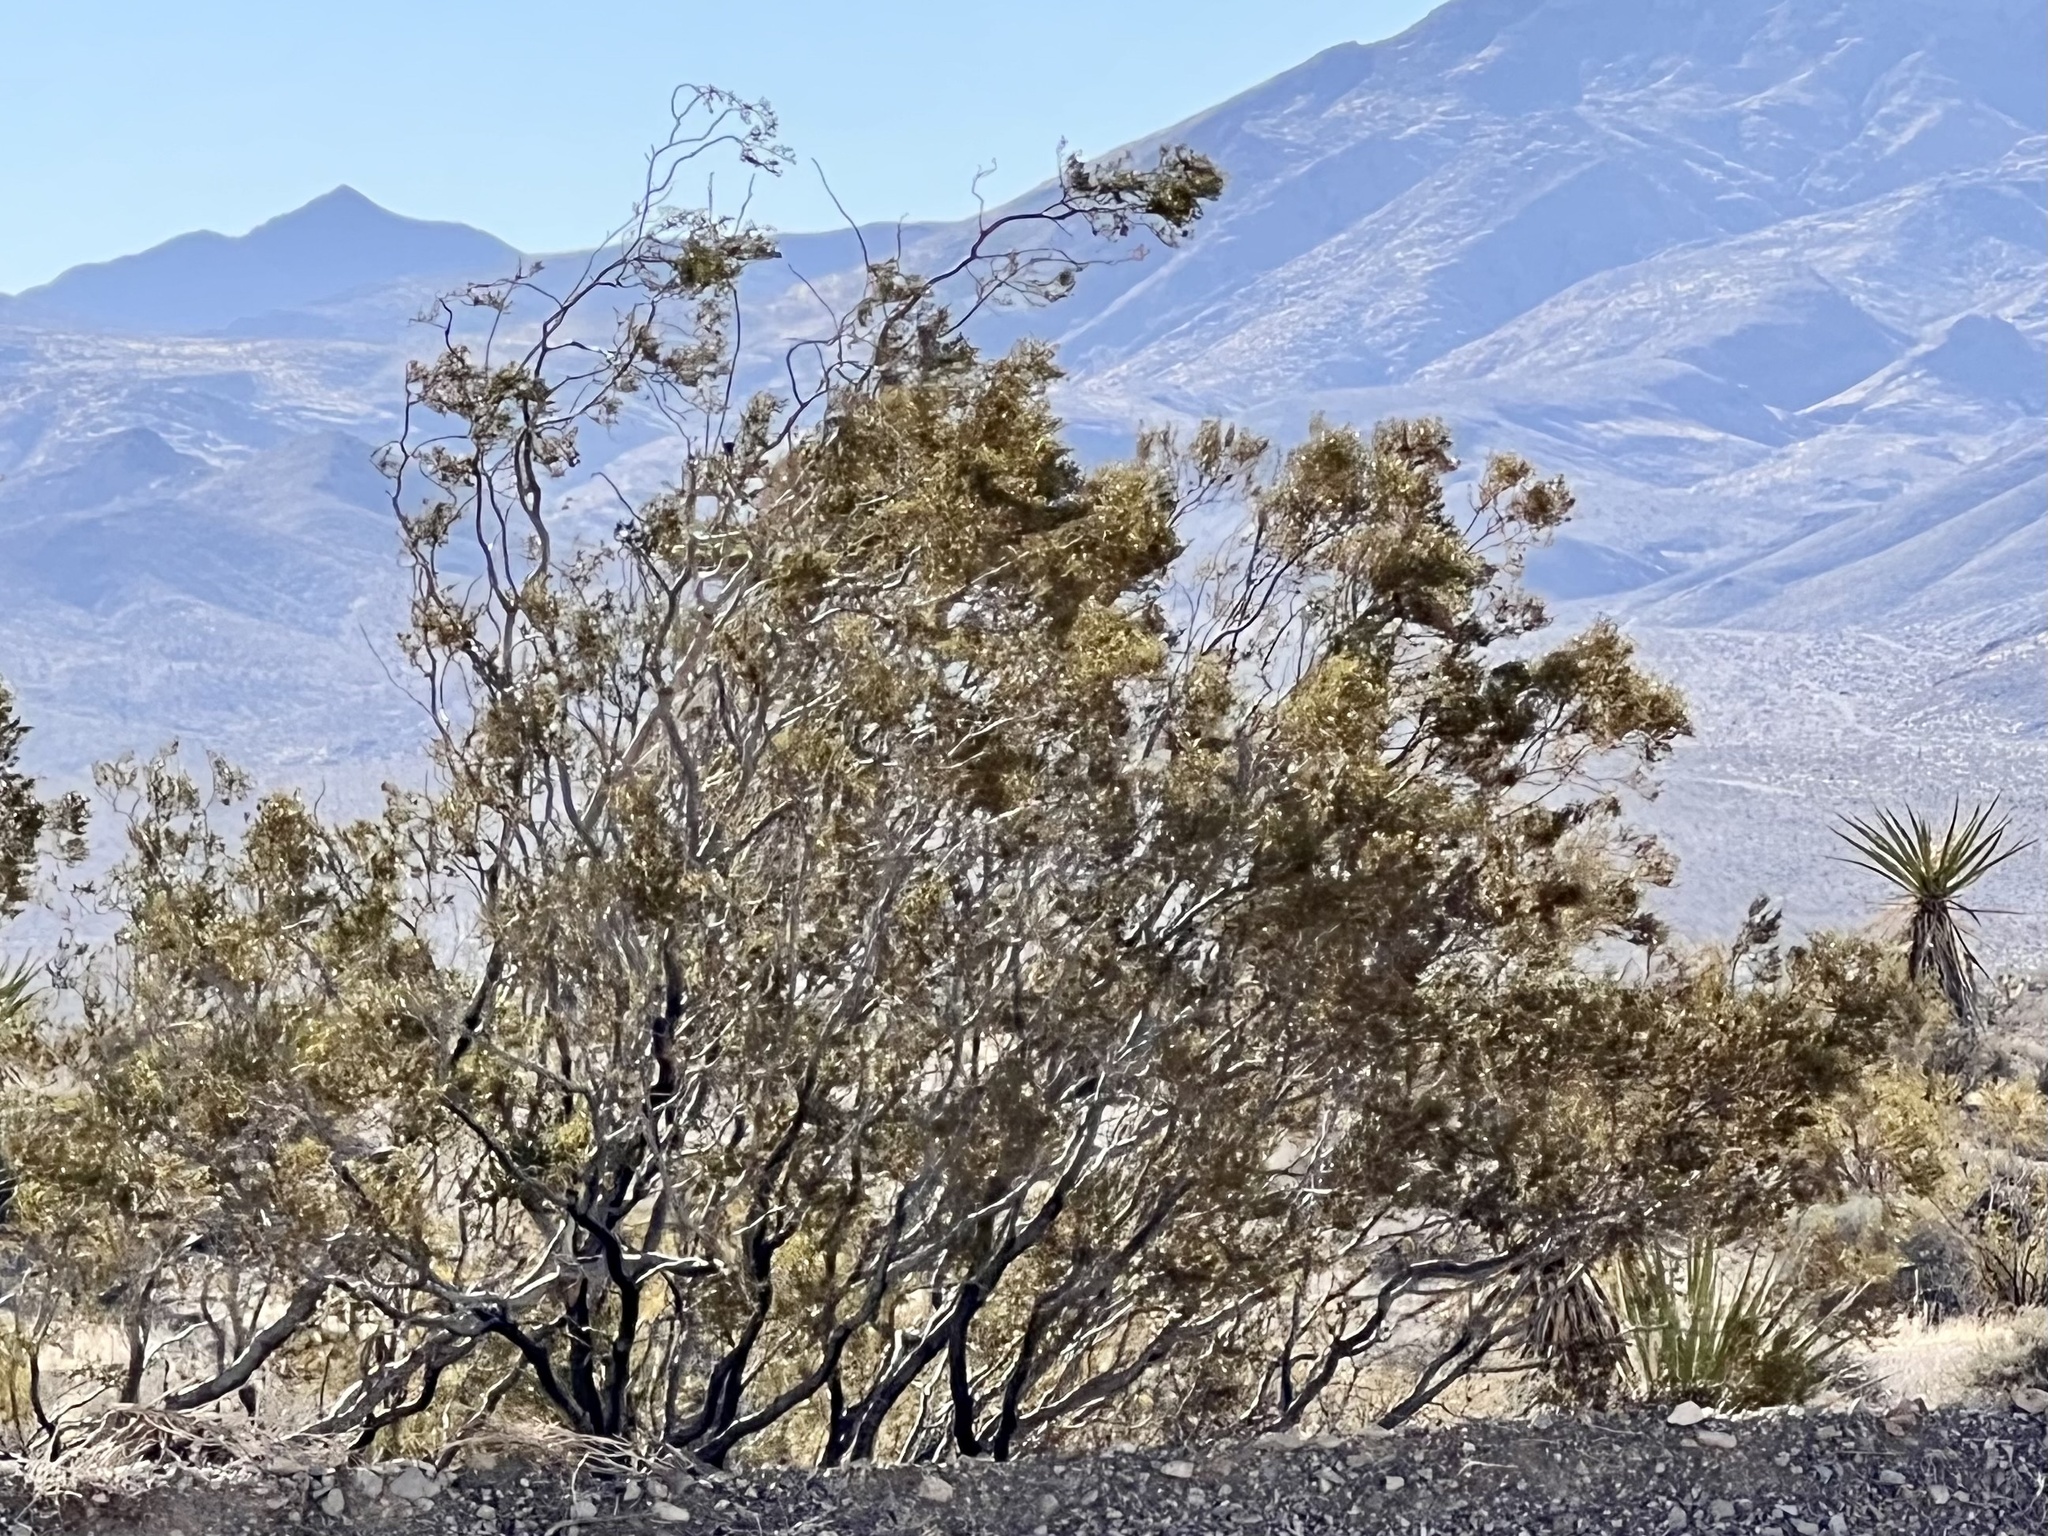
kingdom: Plantae
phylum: Tracheophyta
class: Magnoliopsida
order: Zygophyllales
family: Zygophyllaceae
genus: Larrea
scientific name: Larrea tridentata
